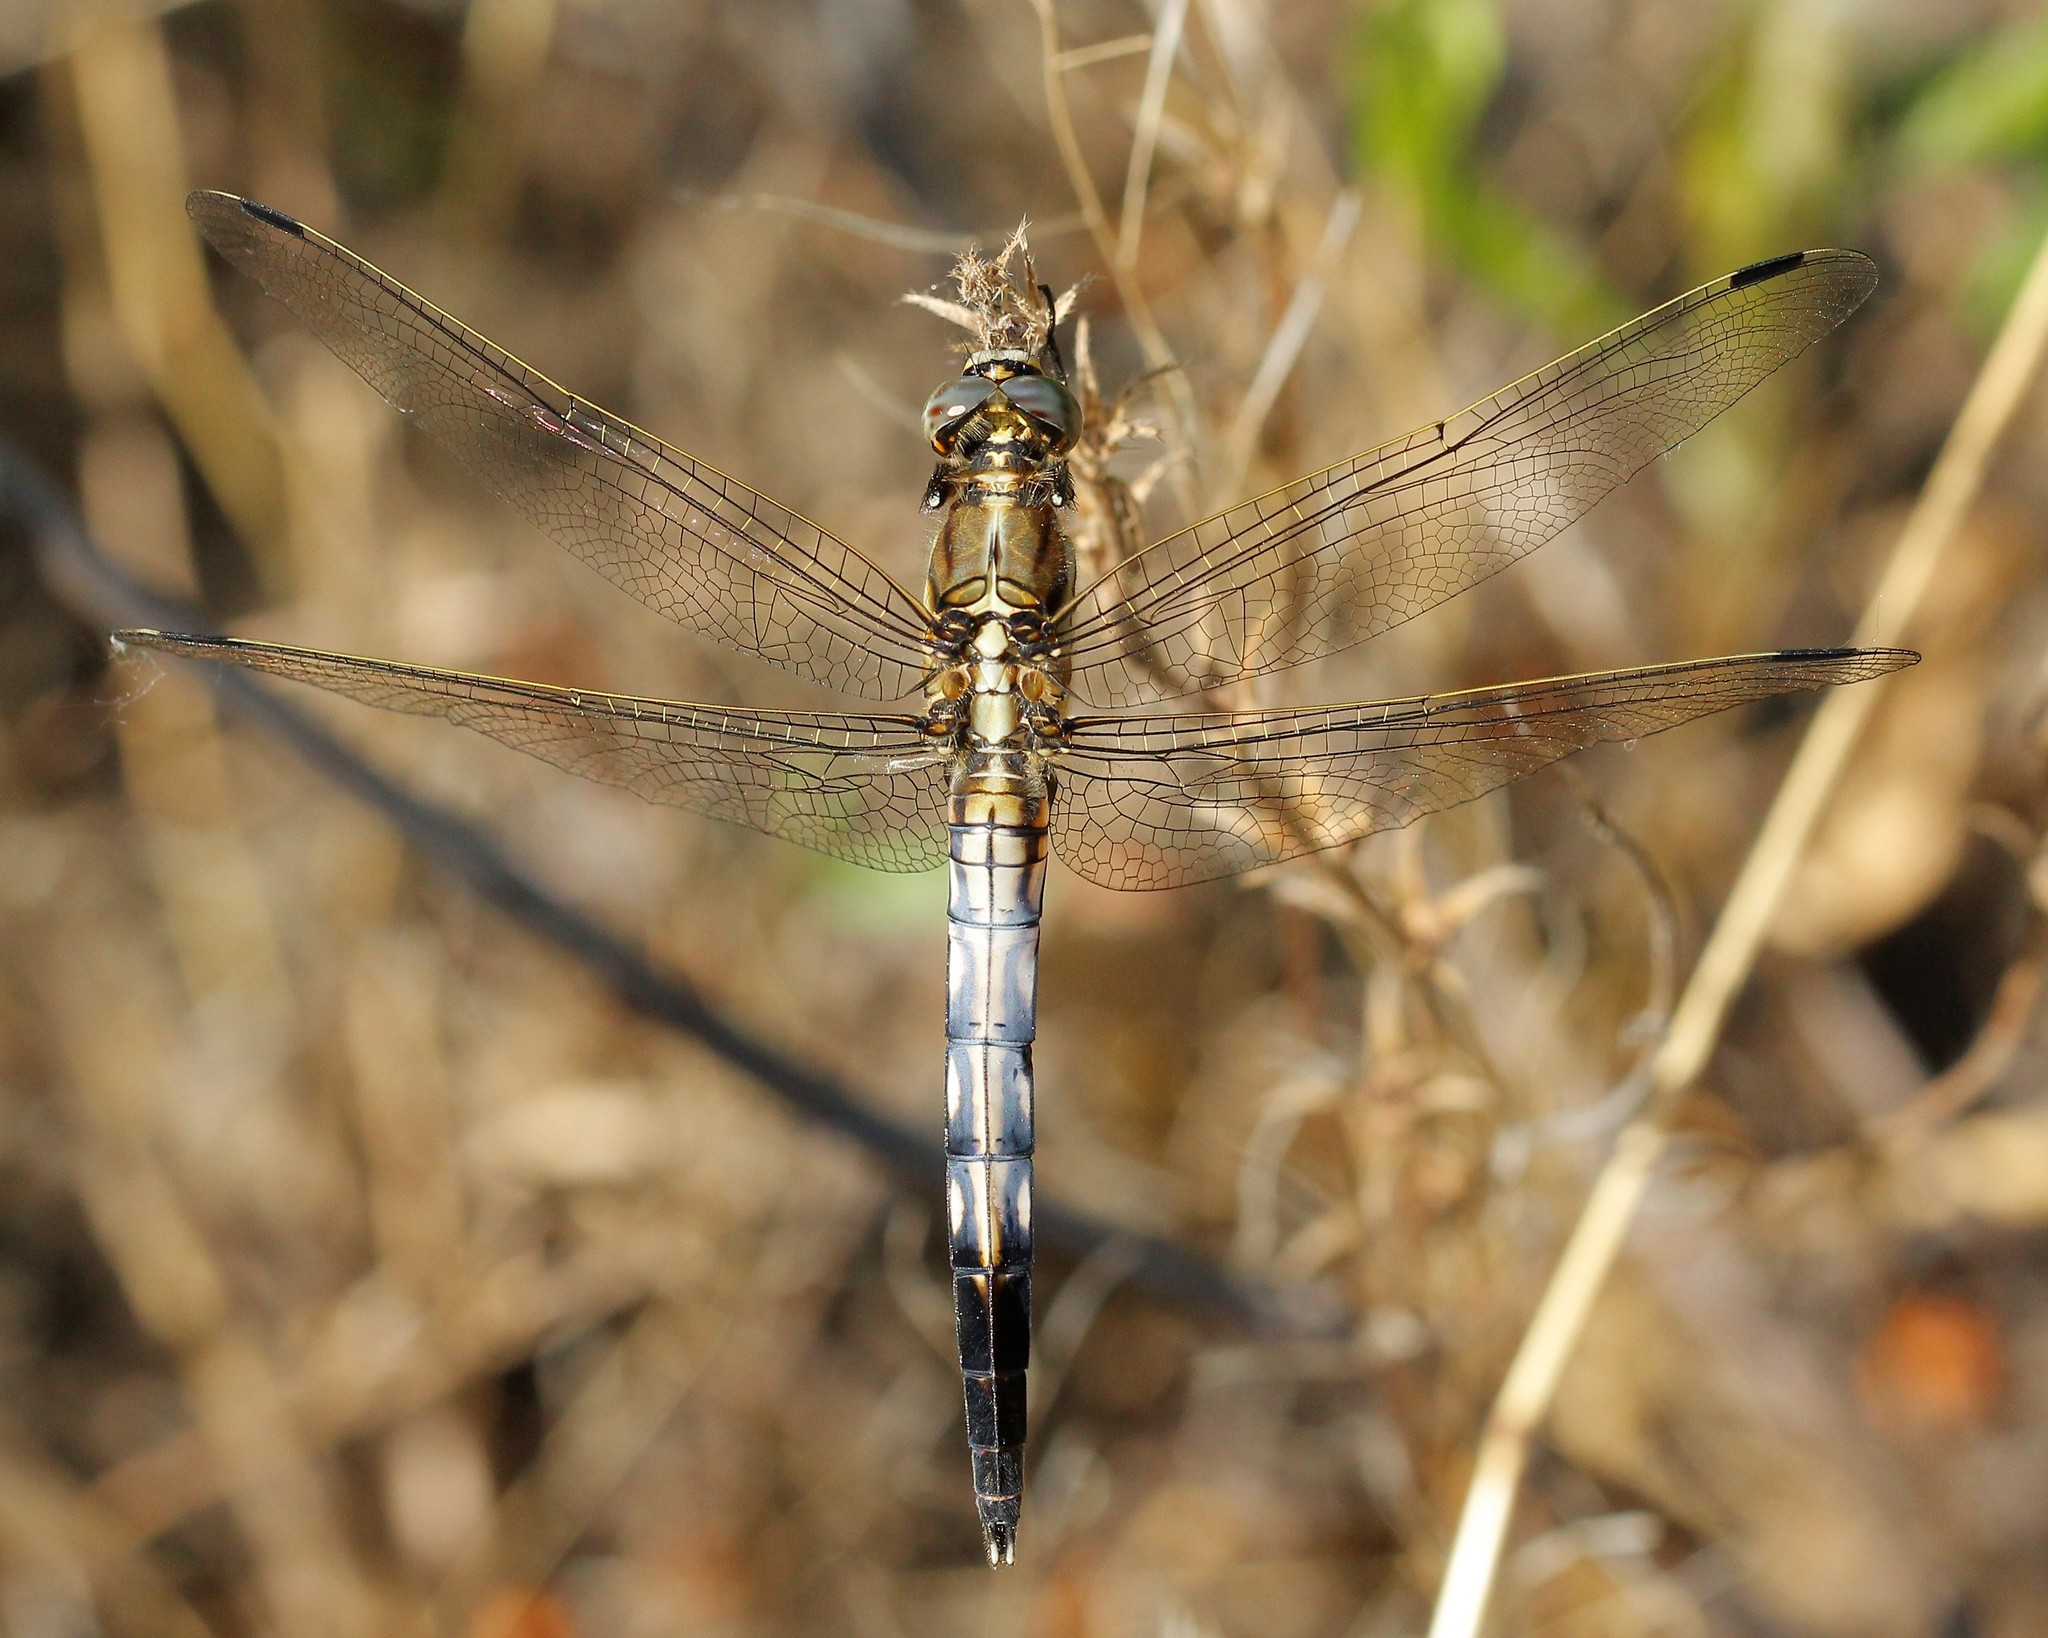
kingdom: Animalia
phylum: Arthropoda
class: Insecta
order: Odonata
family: Libellulidae
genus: Orthetrum
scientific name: Orthetrum albistylum
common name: White-tailed skimmer
